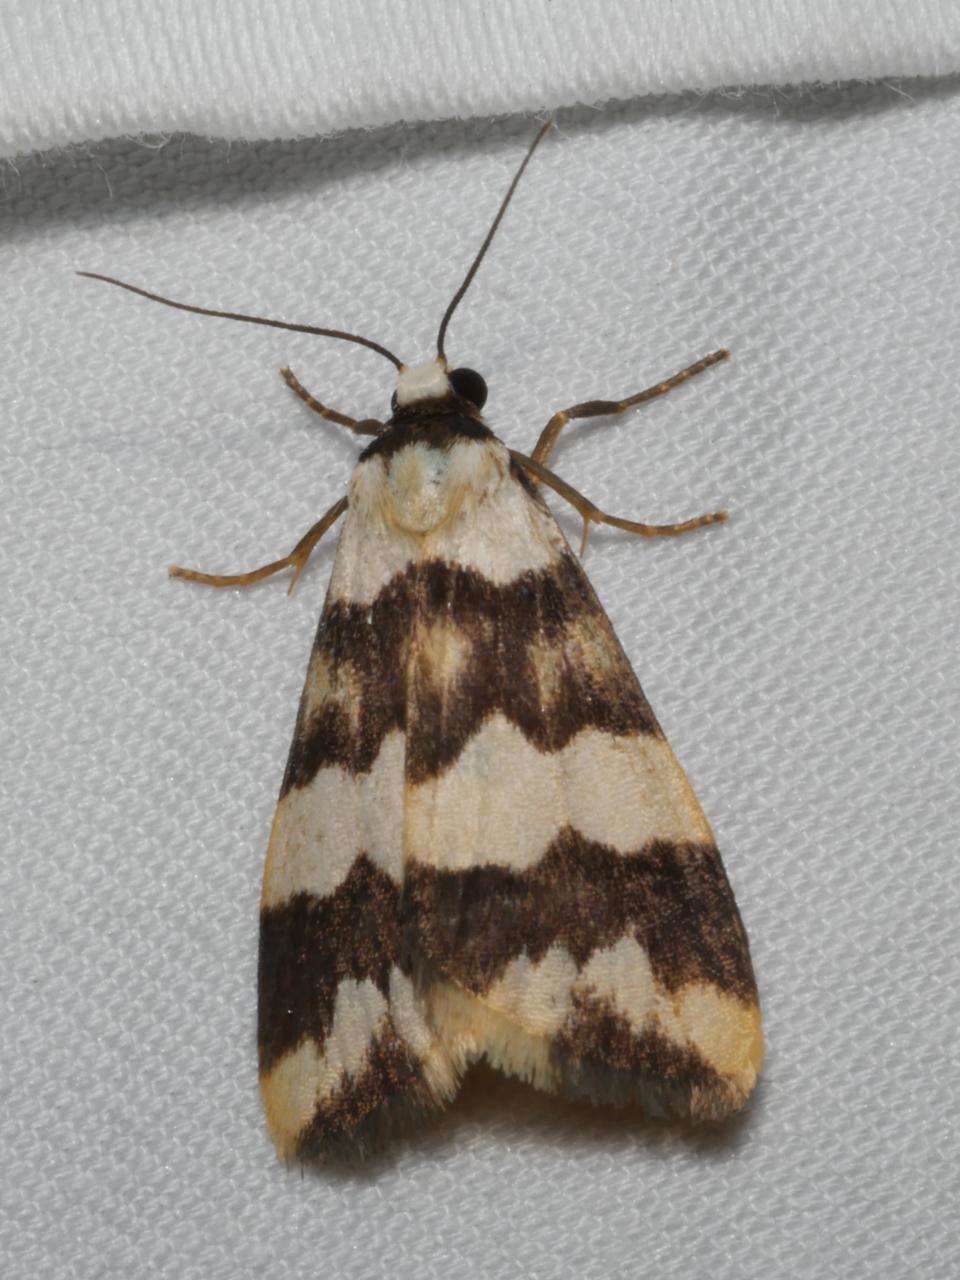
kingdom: Animalia
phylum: Arthropoda
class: Insecta
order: Lepidoptera
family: Erebidae
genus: Termessa
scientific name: Termessa gratiosa
